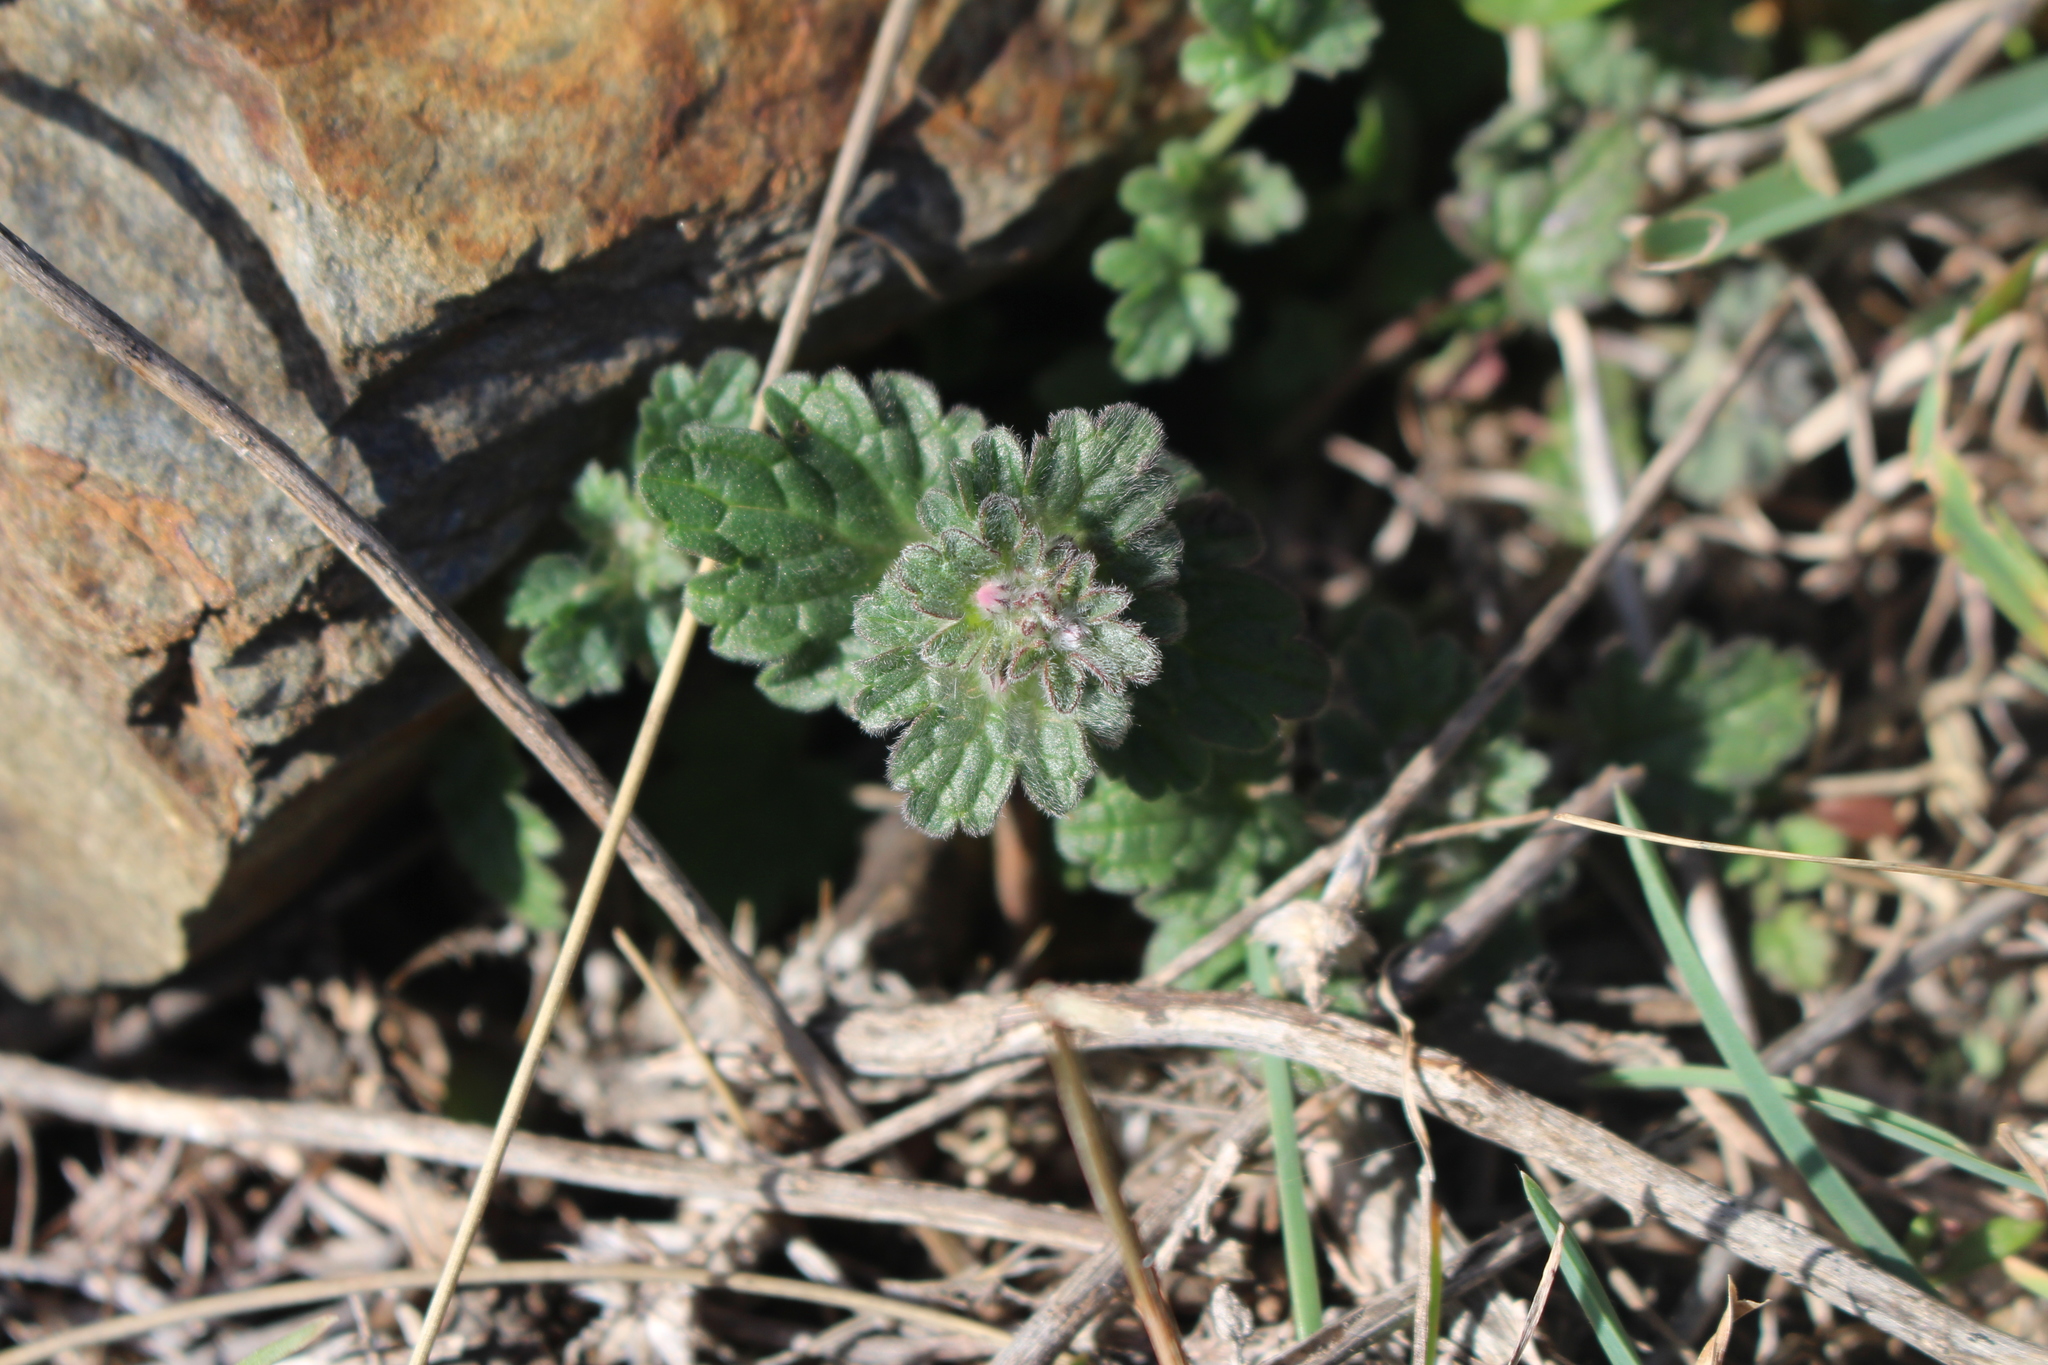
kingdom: Plantae
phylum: Tracheophyta
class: Magnoliopsida
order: Lamiales
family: Lamiaceae
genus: Lamium
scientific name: Lamium amplexicaule
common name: Henbit dead-nettle
